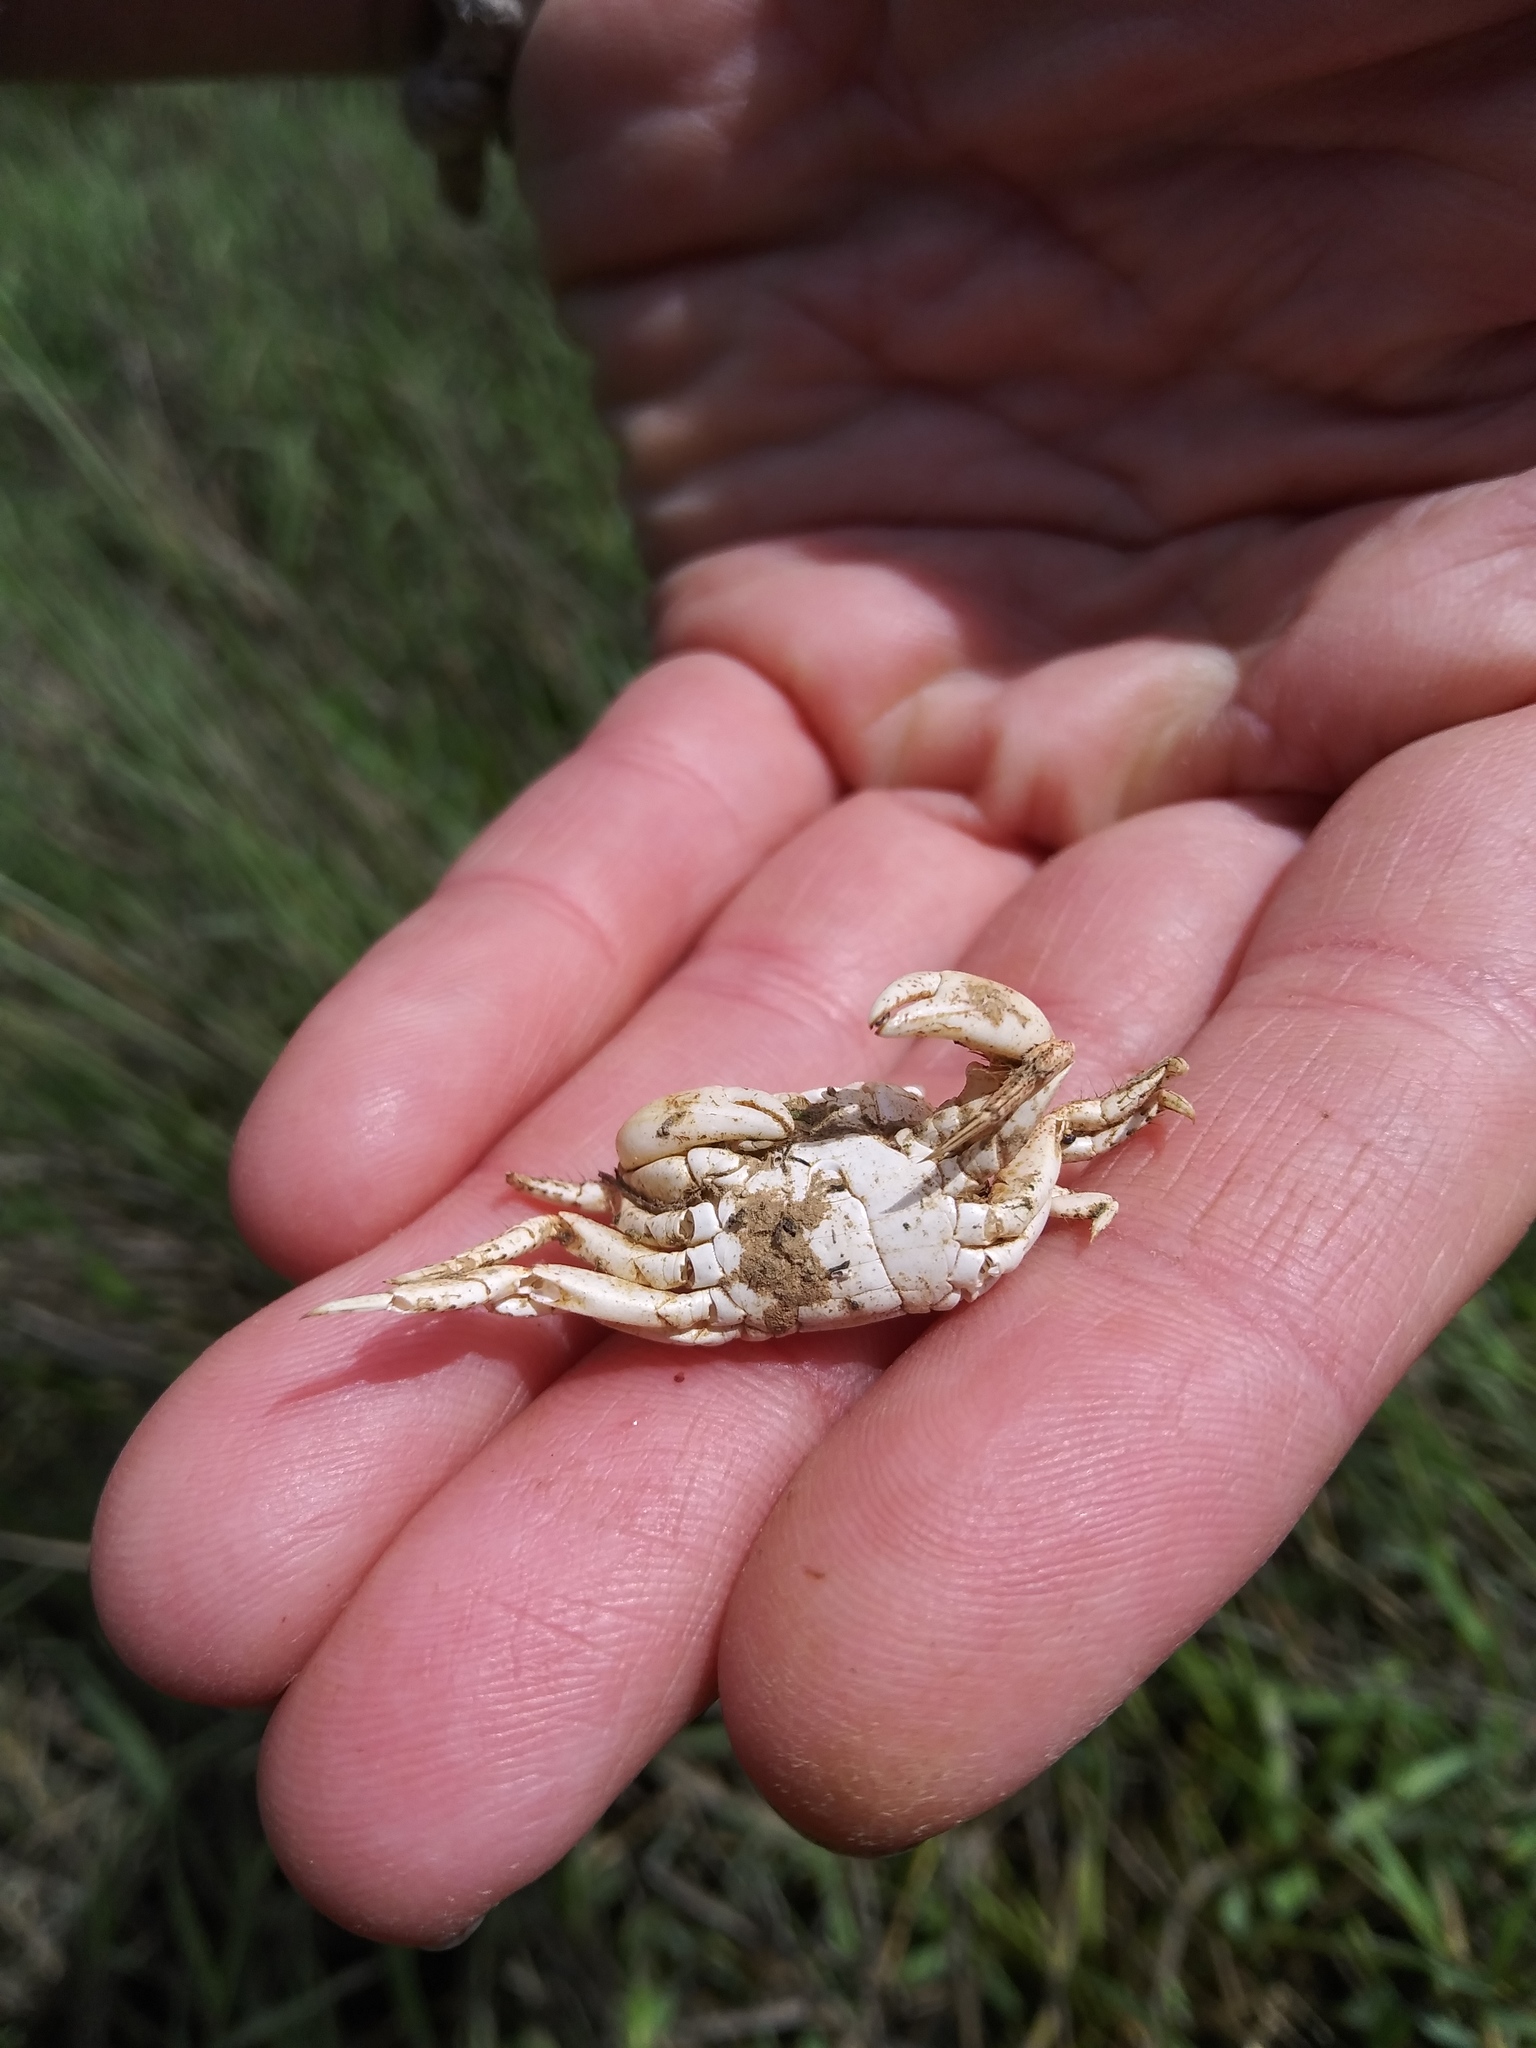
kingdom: Animalia
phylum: Arthropoda
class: Malacostraca
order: Decapoda
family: Varunidae
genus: Hemigrapsus
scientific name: Hemigrapsus oregonensis
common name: Yellow shore crab
